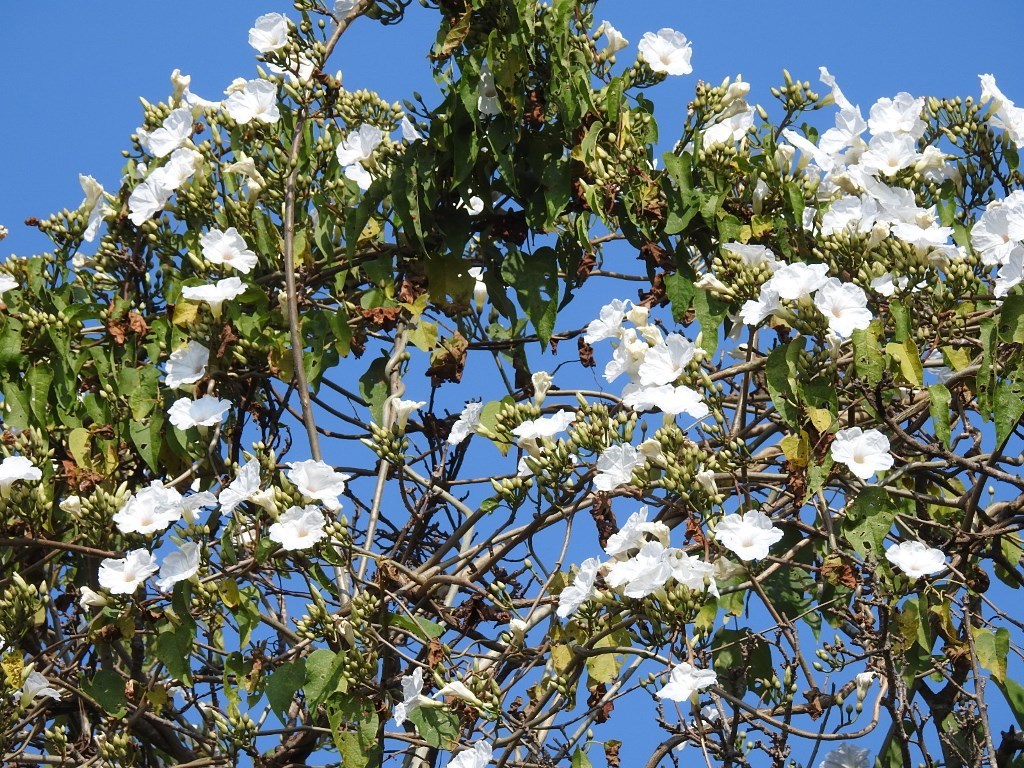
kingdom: Plantae
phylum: Tracheophyta
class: Magnoliopsida
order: Solanales
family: Convolvulaceae
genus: Ipomoea
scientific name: Ipomoea pauciflora
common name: Tree morningglory
